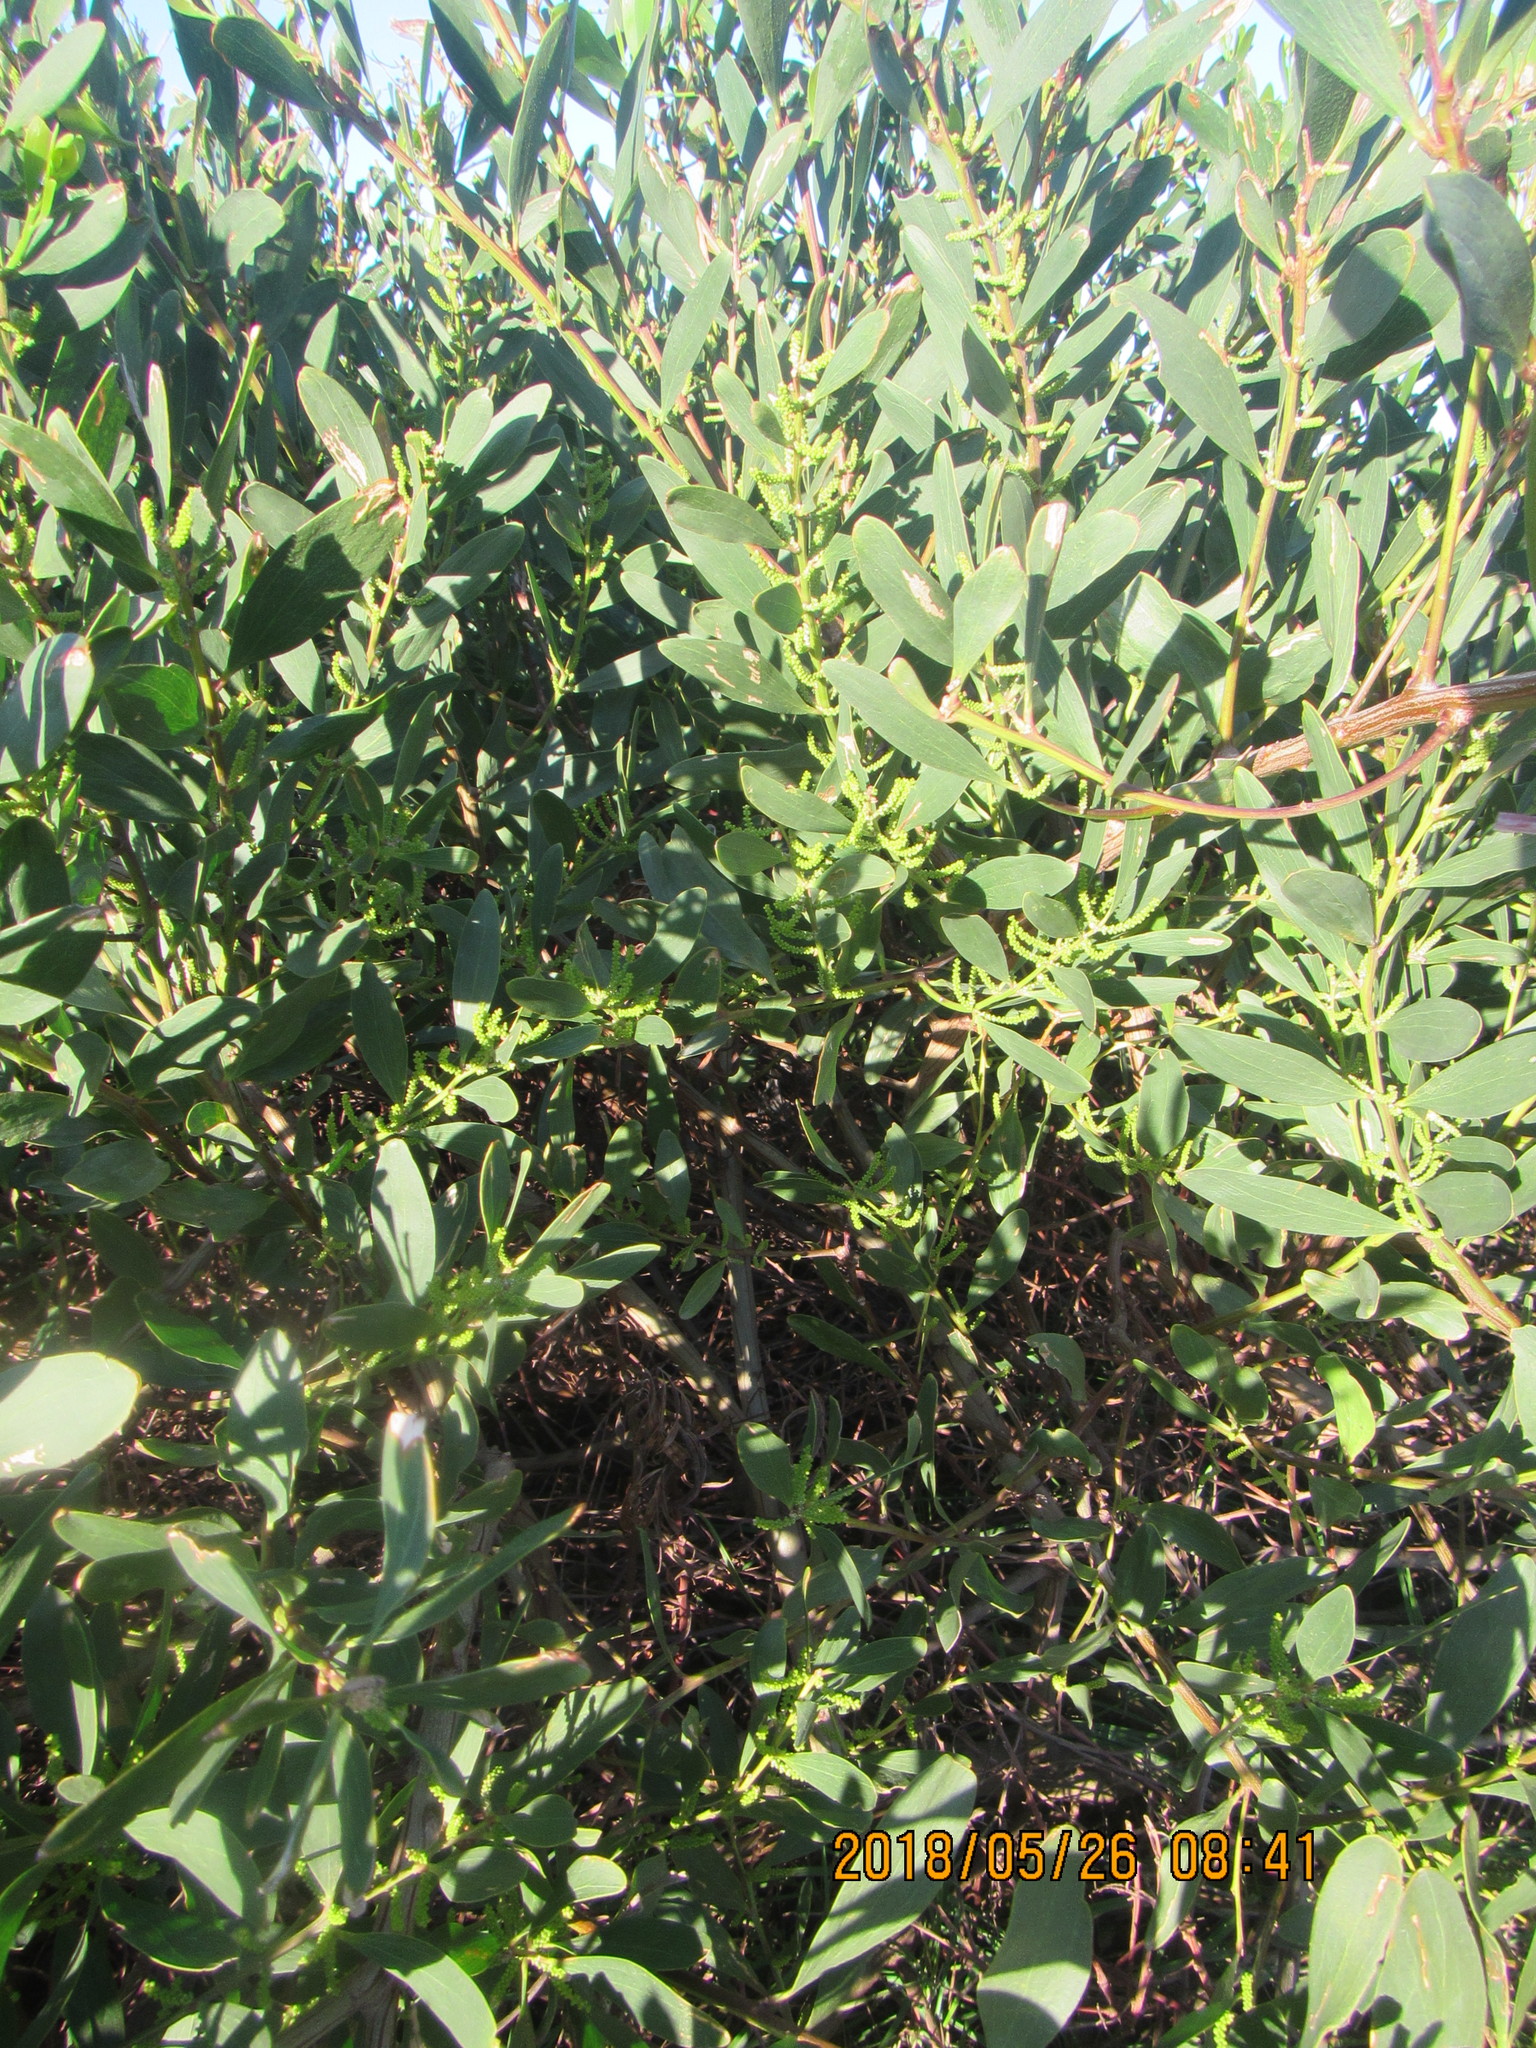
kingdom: Plantae
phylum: Tracheophyta
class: Magnoliopsida
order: Fabales
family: Fabaceae
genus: Acacia
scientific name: Acacia longifolia
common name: Sydney golden wattle
